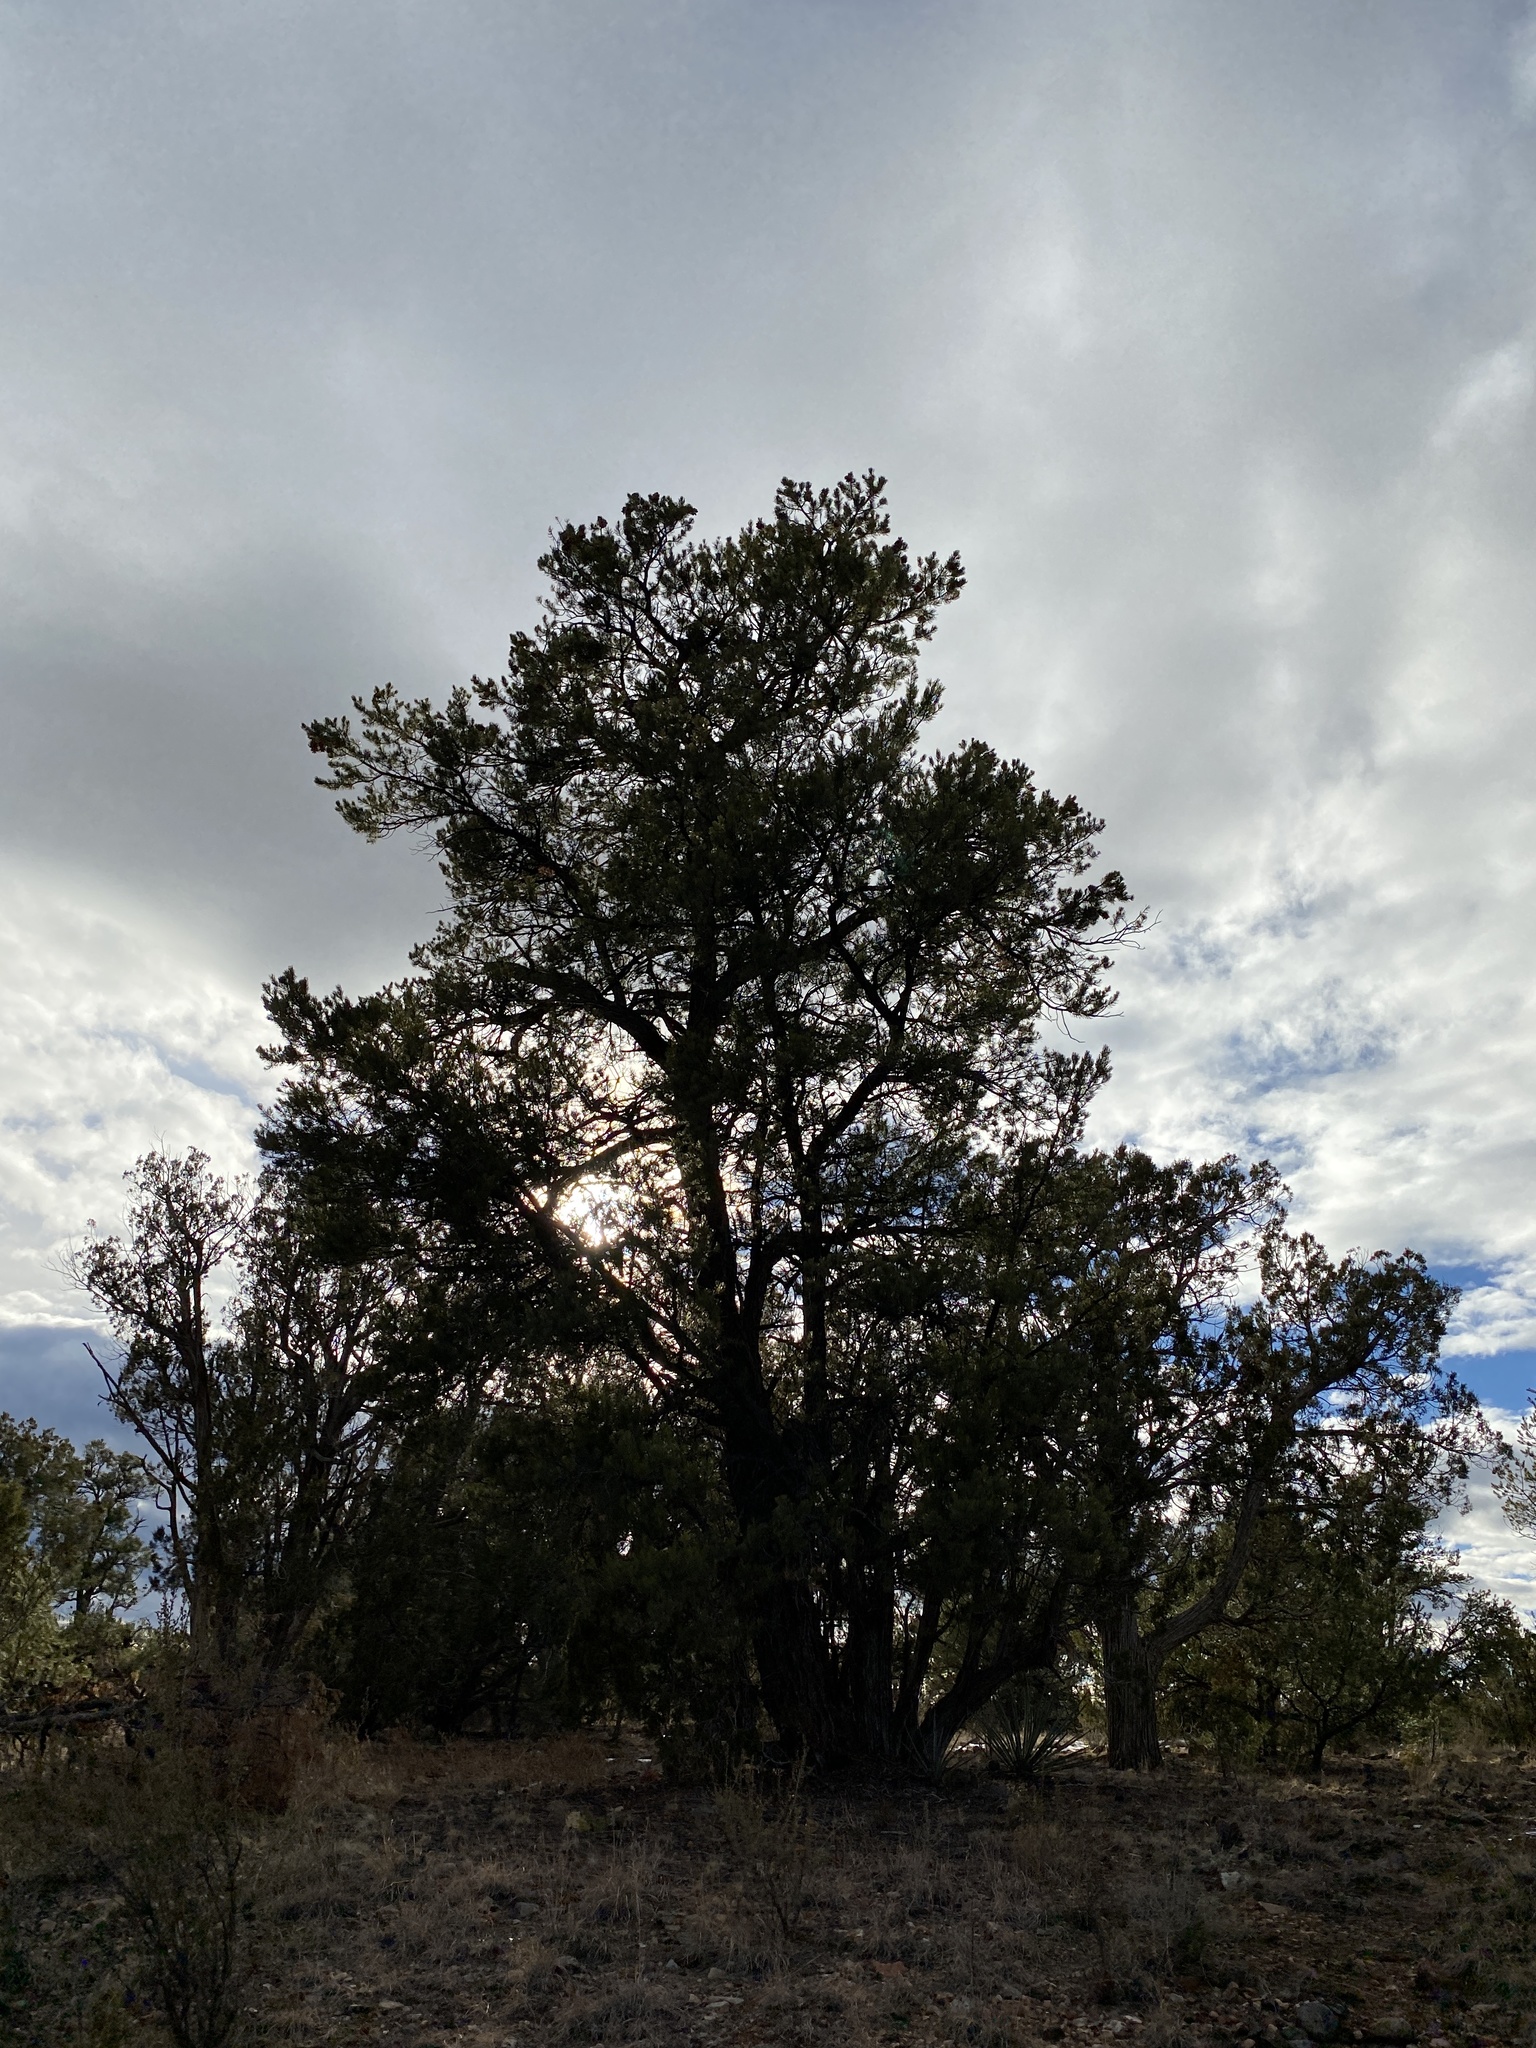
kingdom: Plantae
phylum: Tracheophyta
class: Pinopsida
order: Pinales
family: Pinaceae
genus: Pinus
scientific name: Pinus edulis
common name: Colorado pinyon
